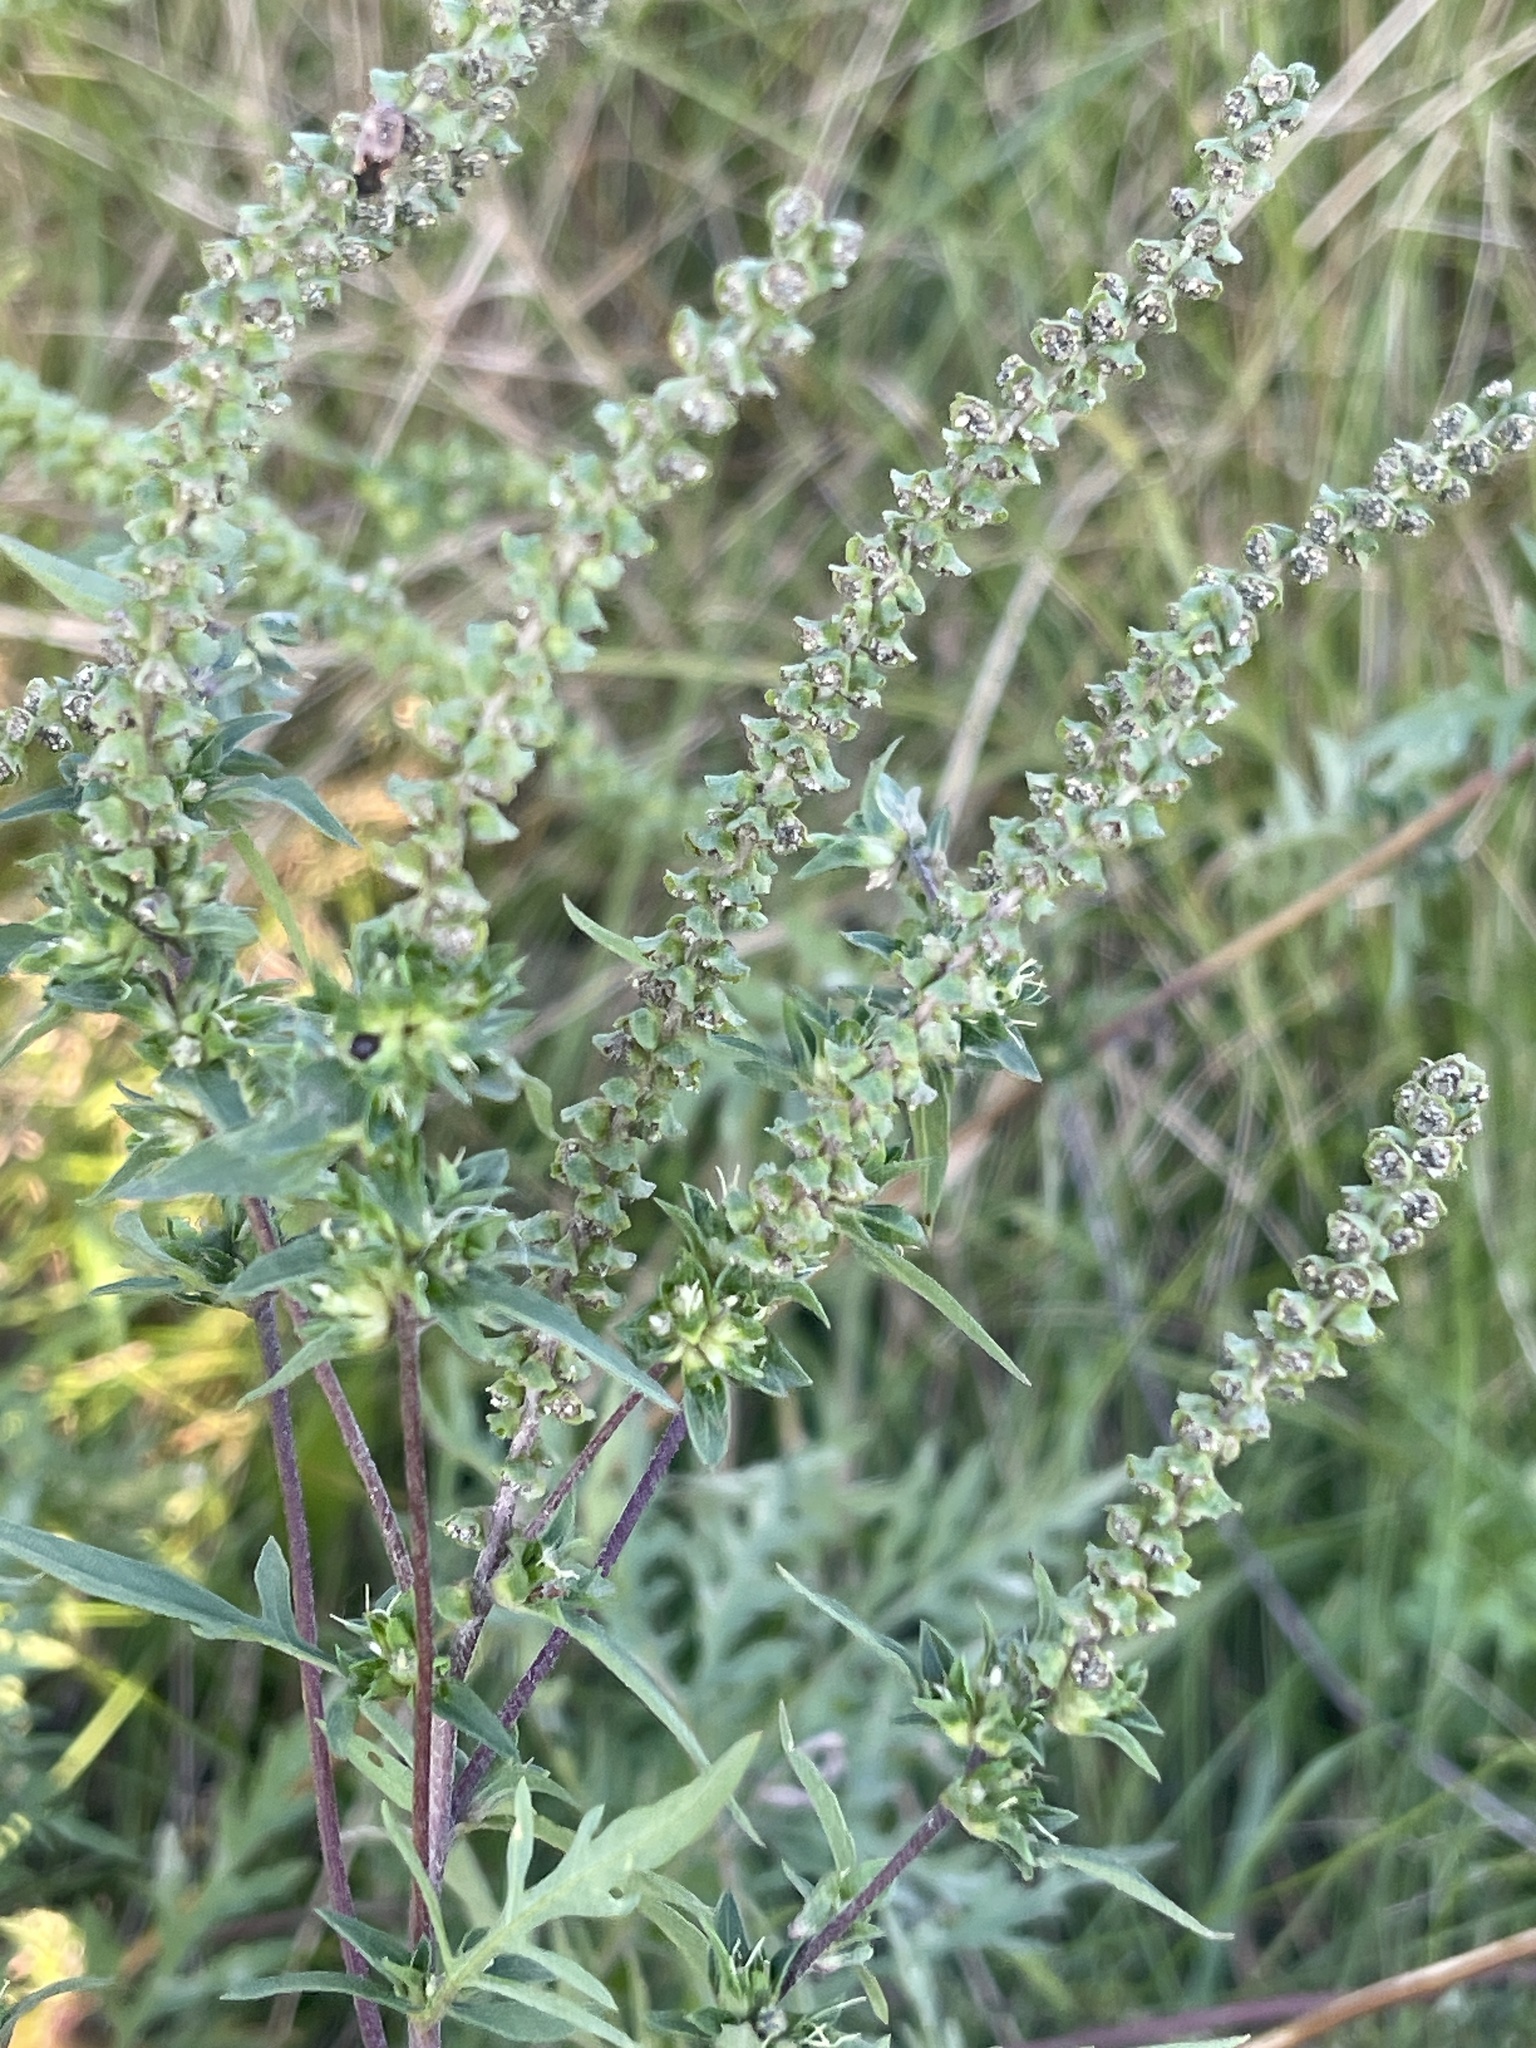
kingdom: Plantae
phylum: Tracheophyta
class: Magnoliopsida
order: Asterales
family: Asteraceae
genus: Ambrosia
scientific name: Ambrosia artemisiifolia
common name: Annual ragweed
